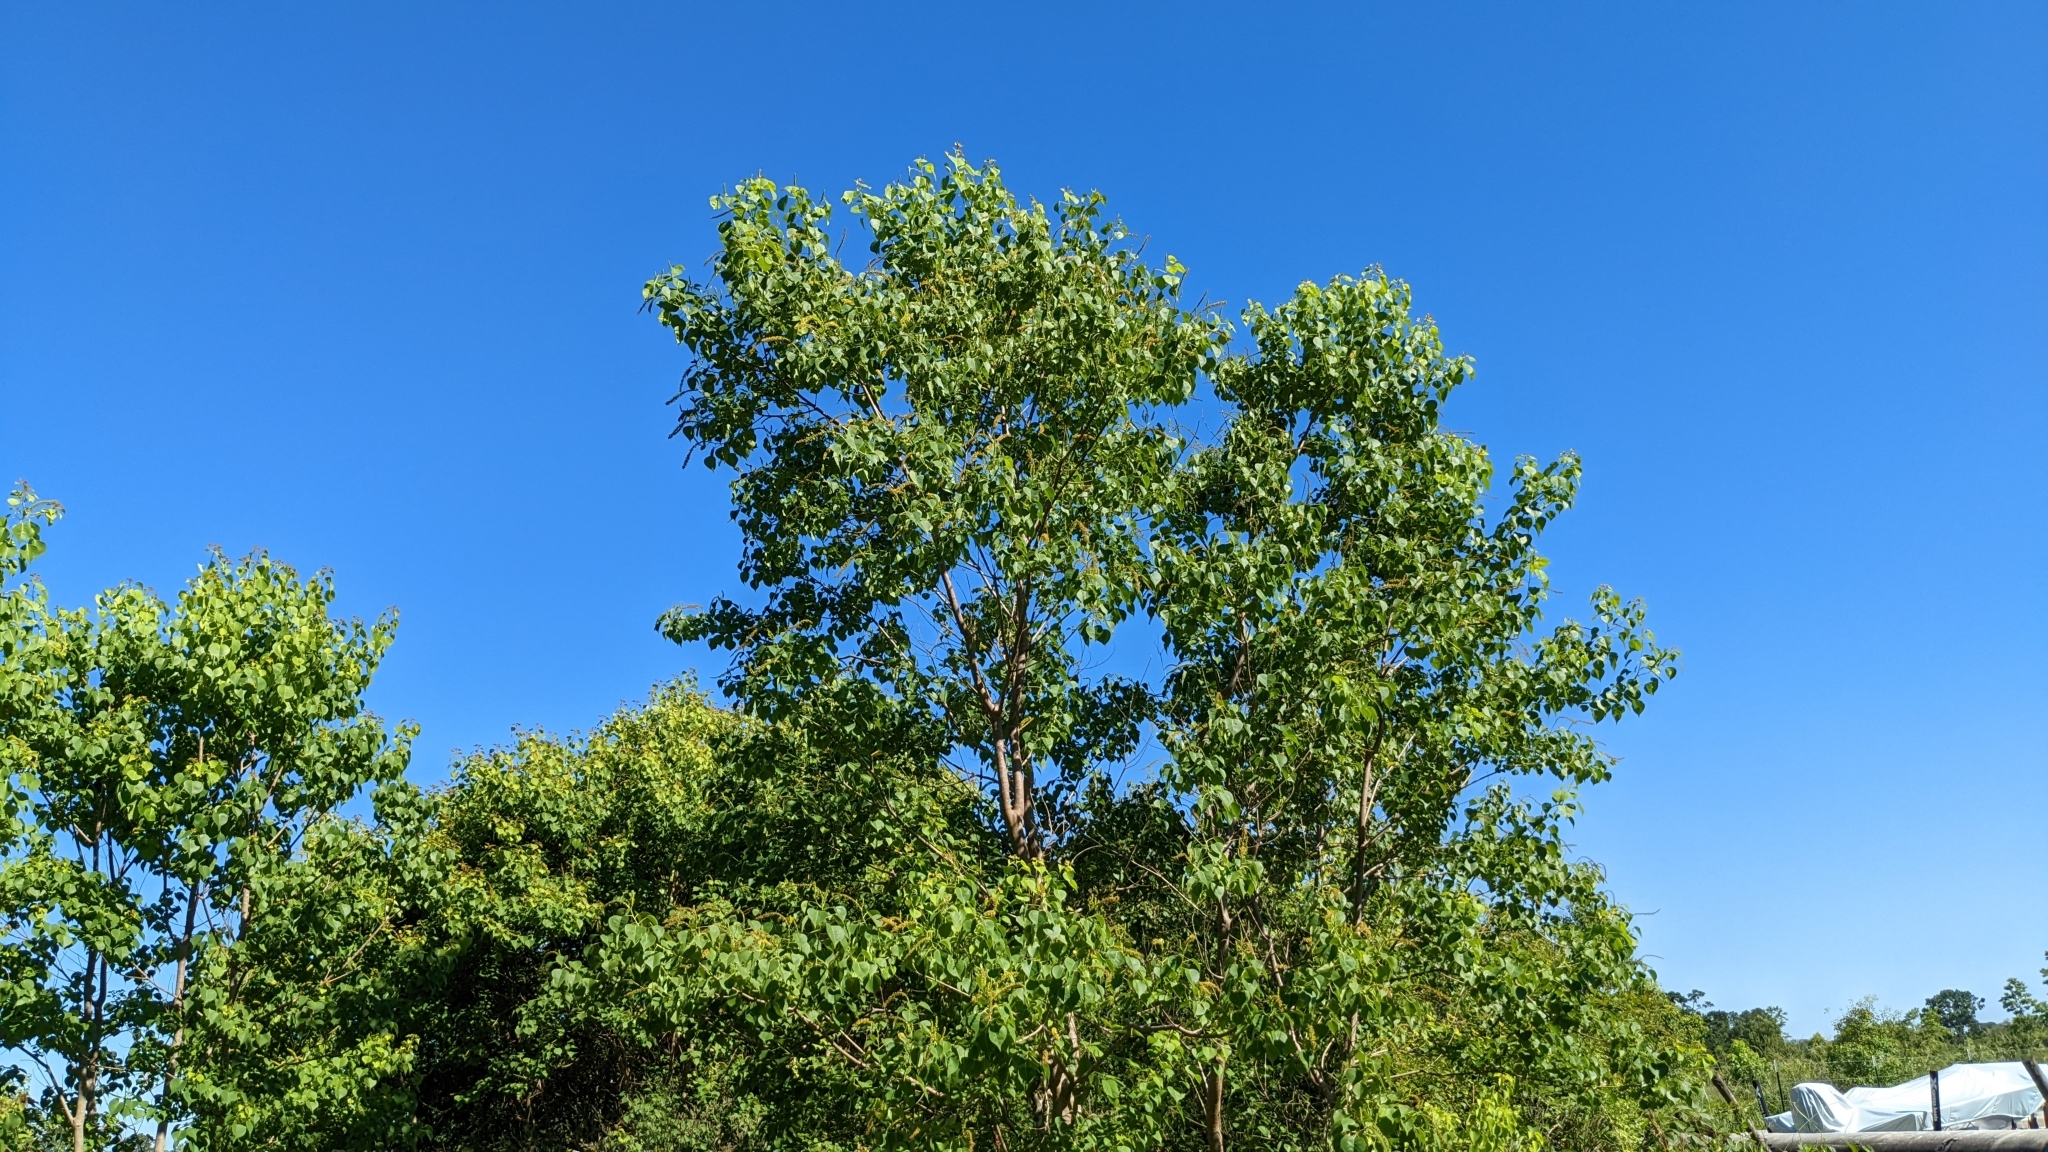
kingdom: Plantae
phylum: Tracheophyta
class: Magnoliopsida
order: Malpighiales
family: Euphorbiaceae
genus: Triadica
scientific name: Triadica sebifera
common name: Chinese tallow
